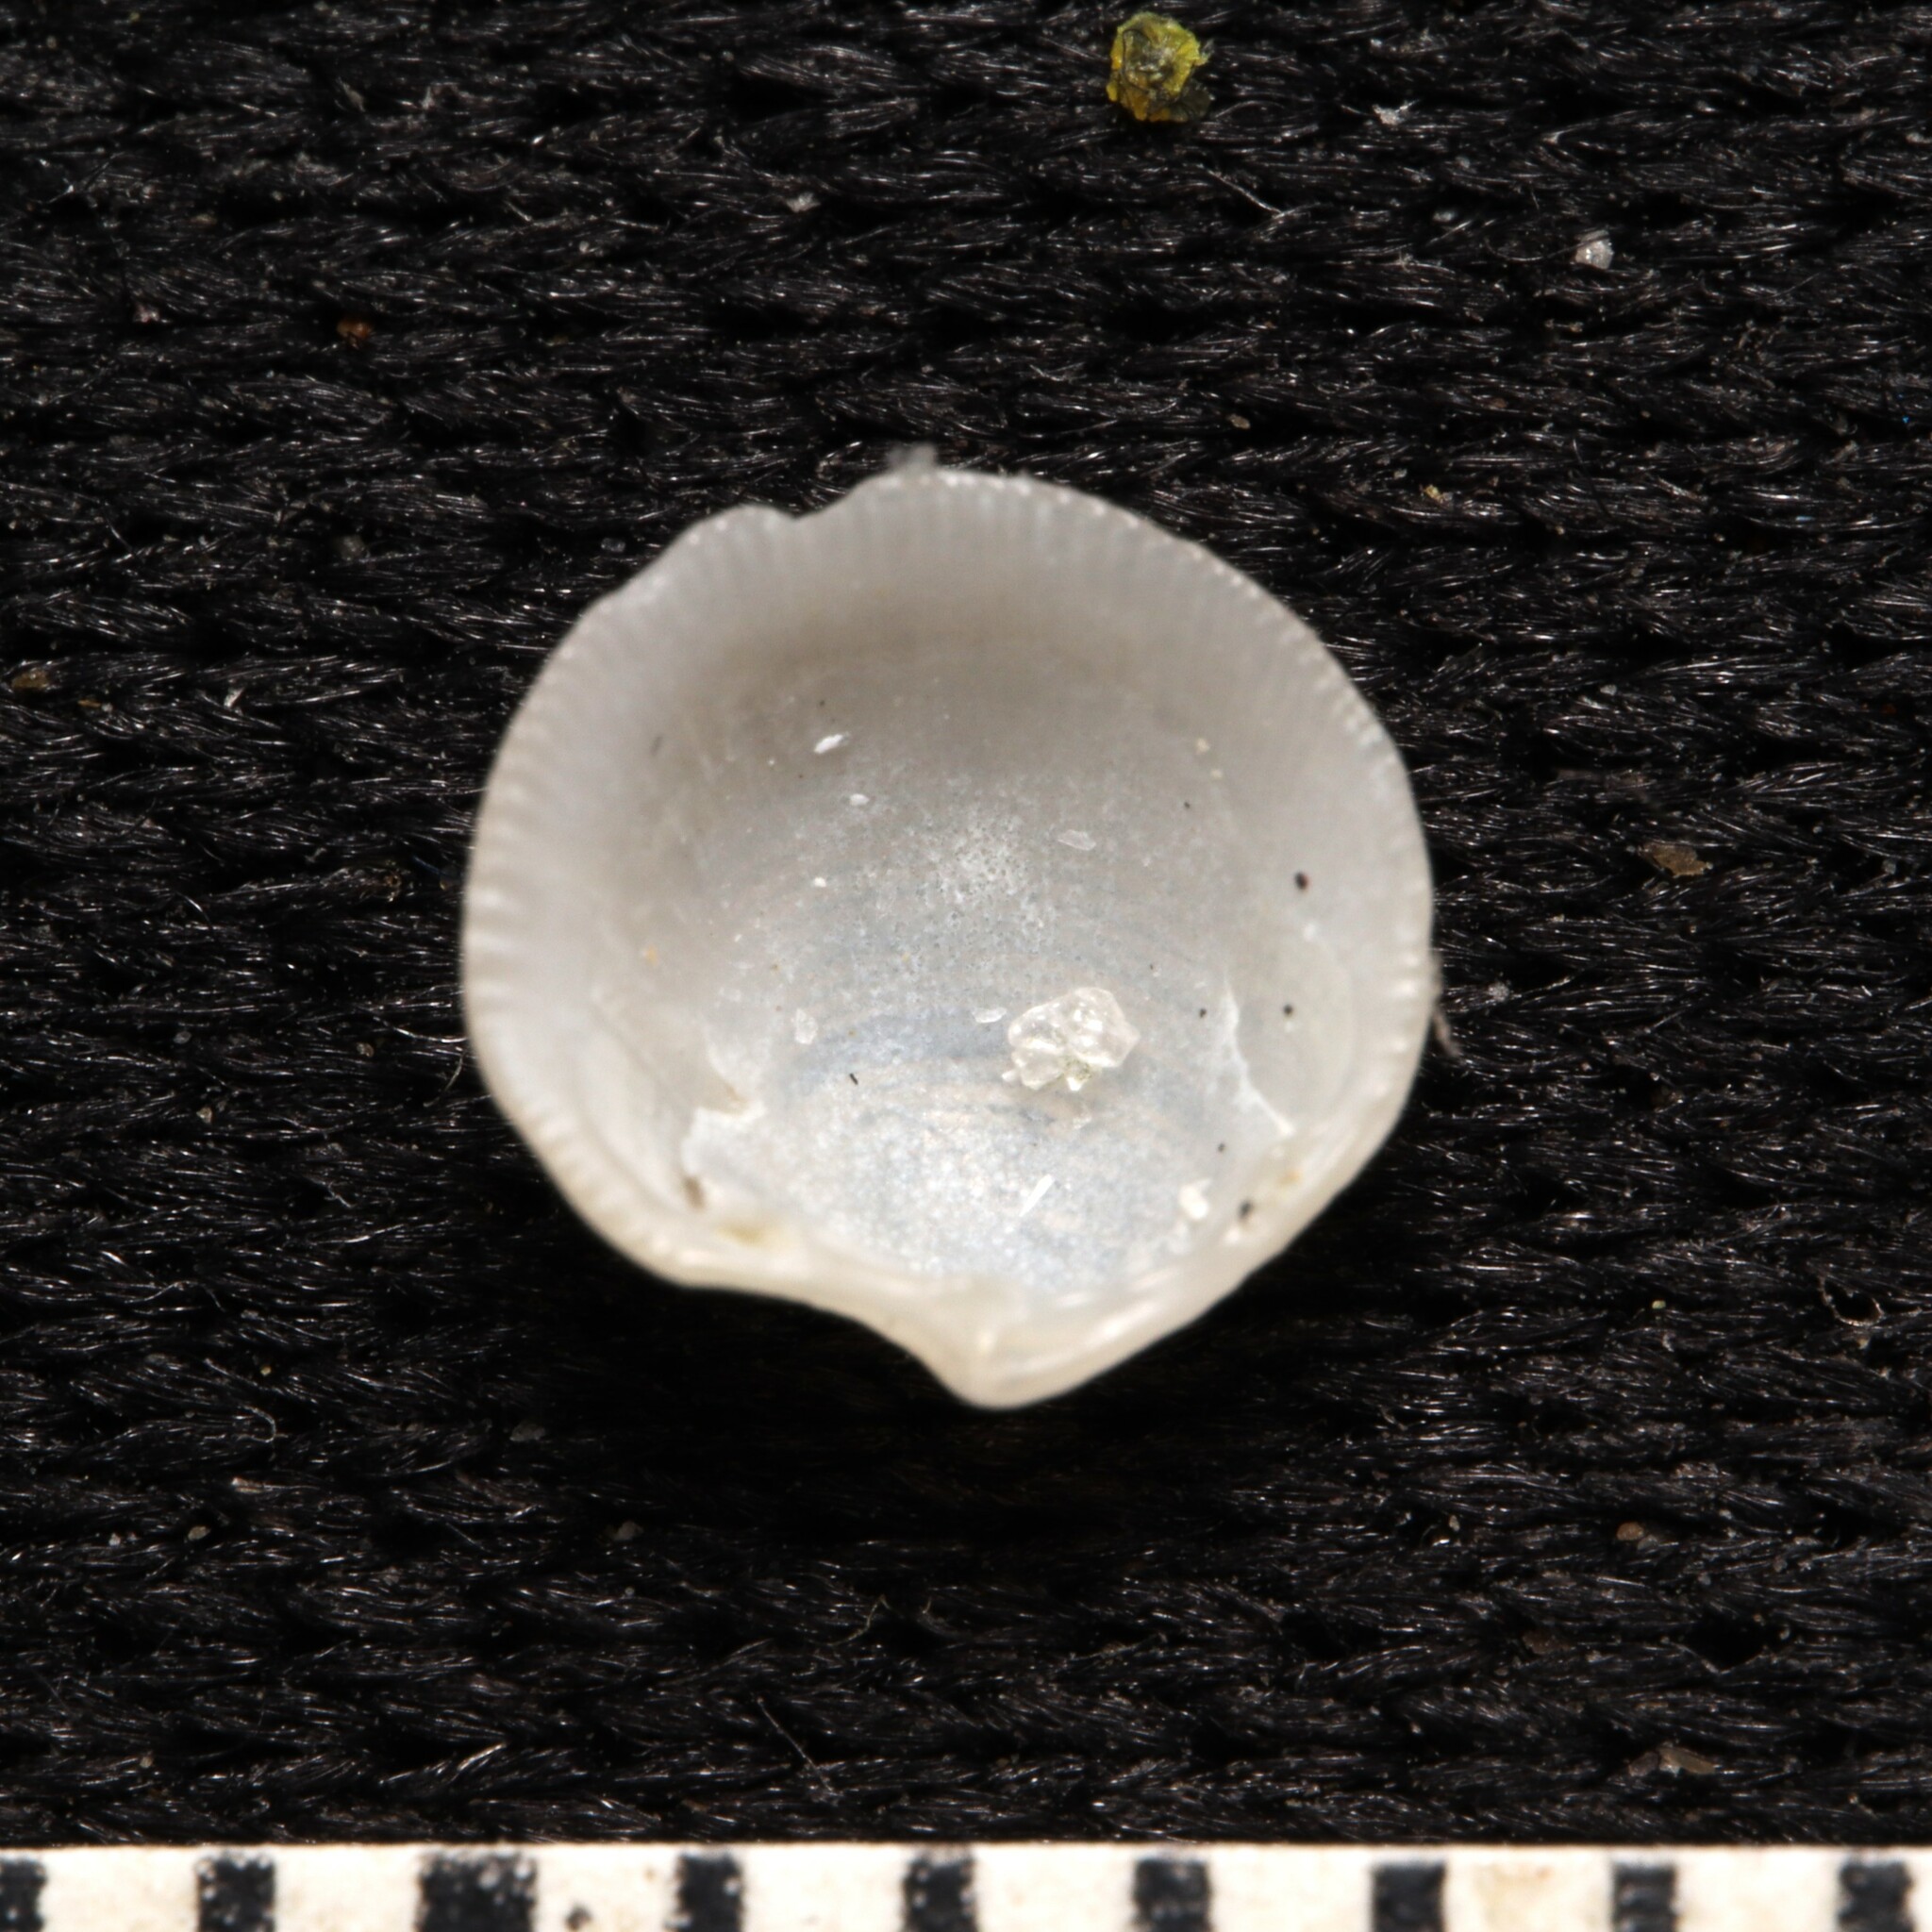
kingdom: Animalia
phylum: Mollusca
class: Bivalvia
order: Lucinida
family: Lucinidae
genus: Parvilucina
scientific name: Parvilucina crenella
